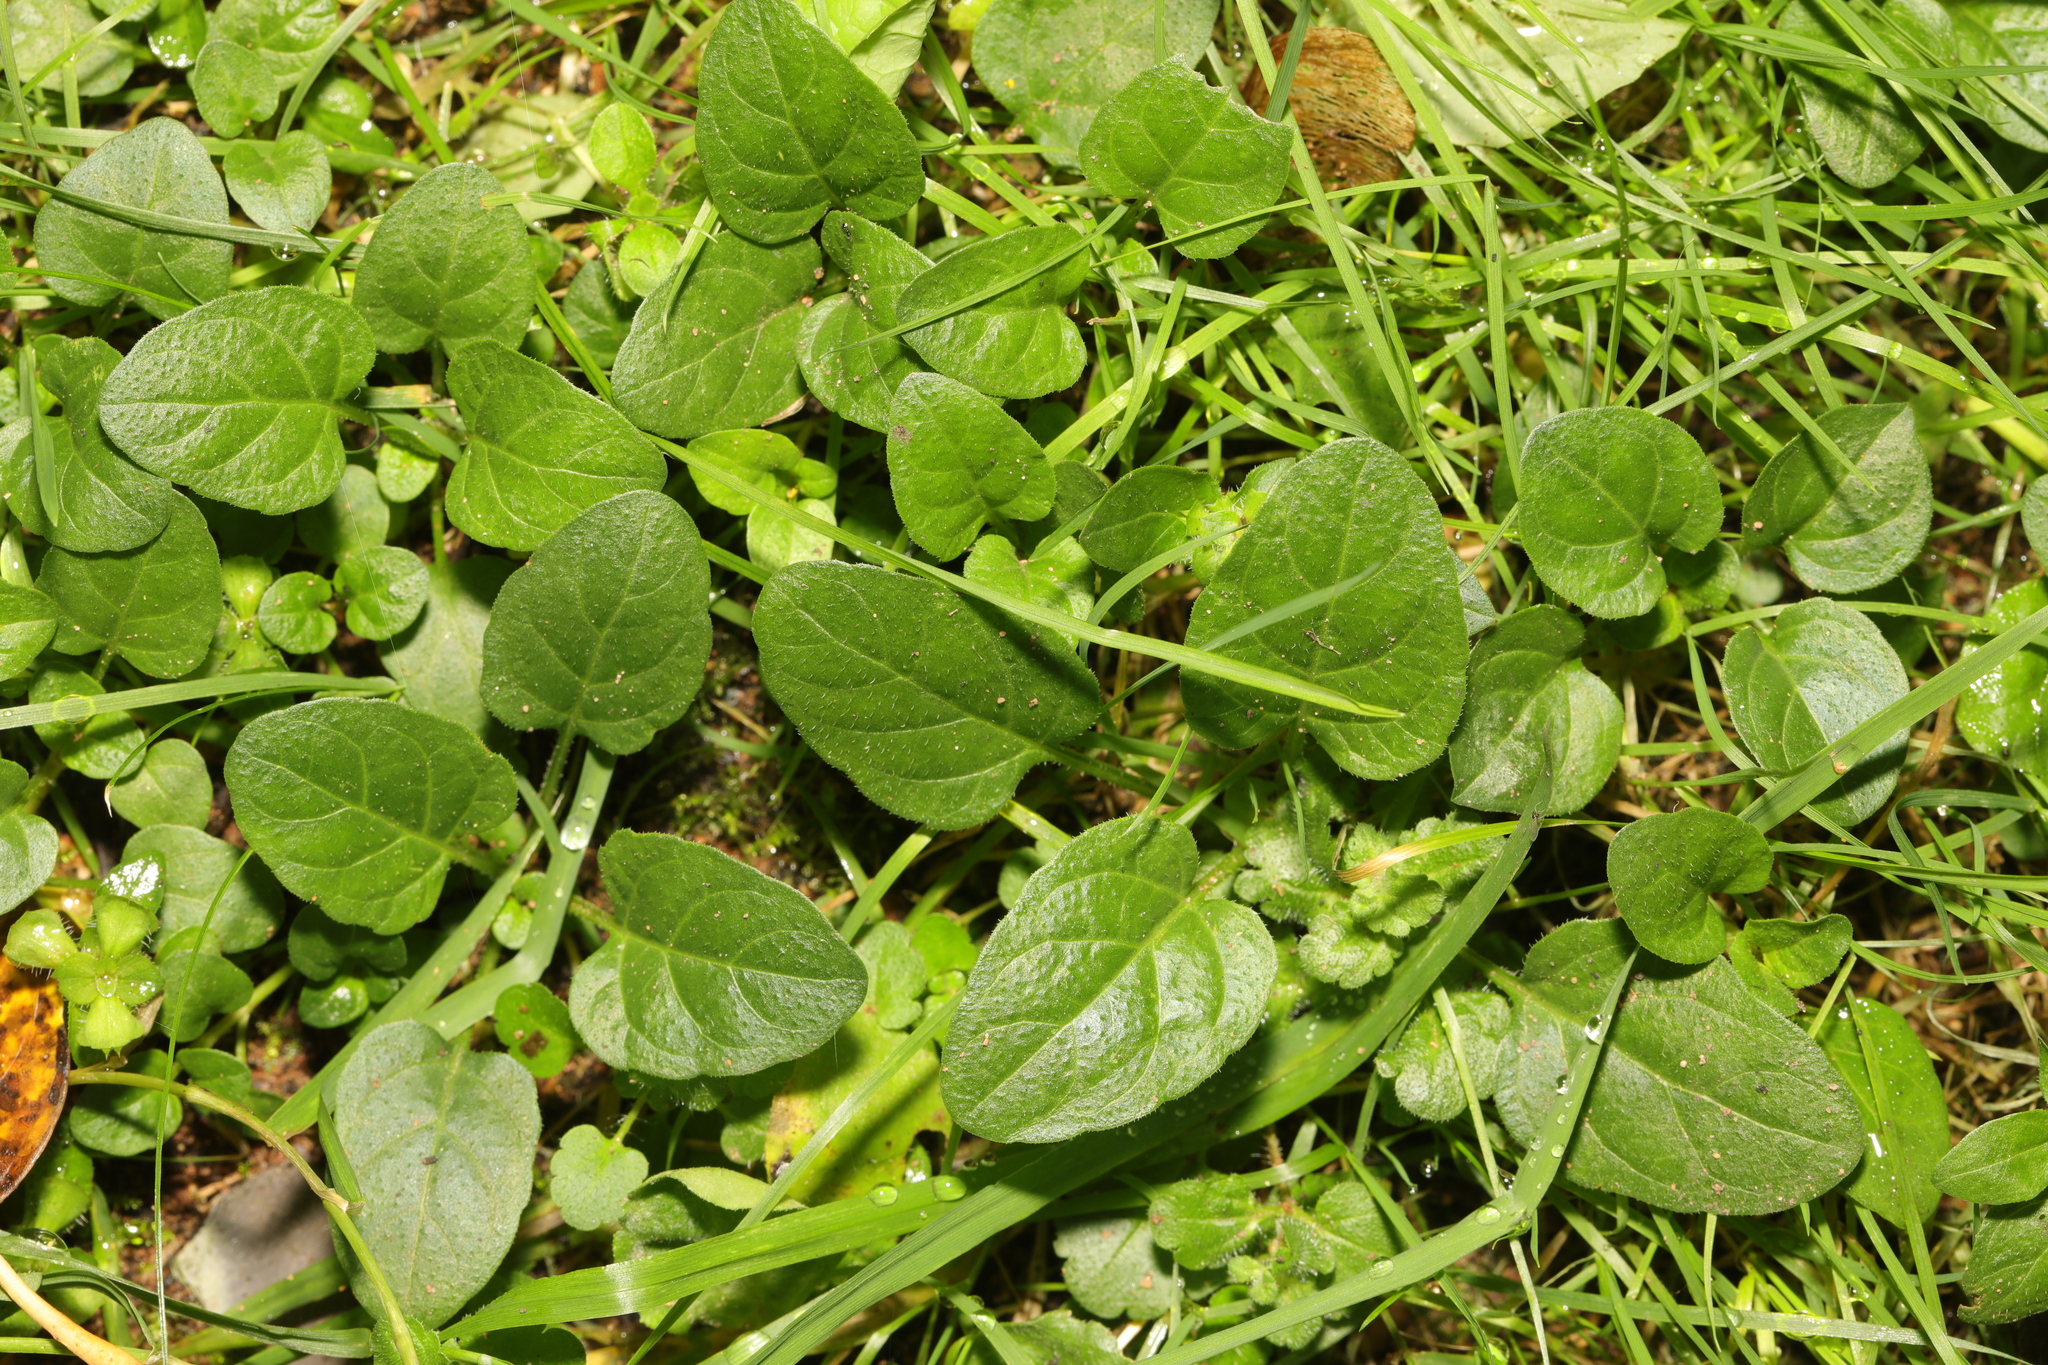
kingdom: Plantae
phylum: Tracheophyta
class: Magnoliopsida
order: Lamiales
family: Lamiaceae
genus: Prunella
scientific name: Prunella vulgaris
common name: Heal-all
